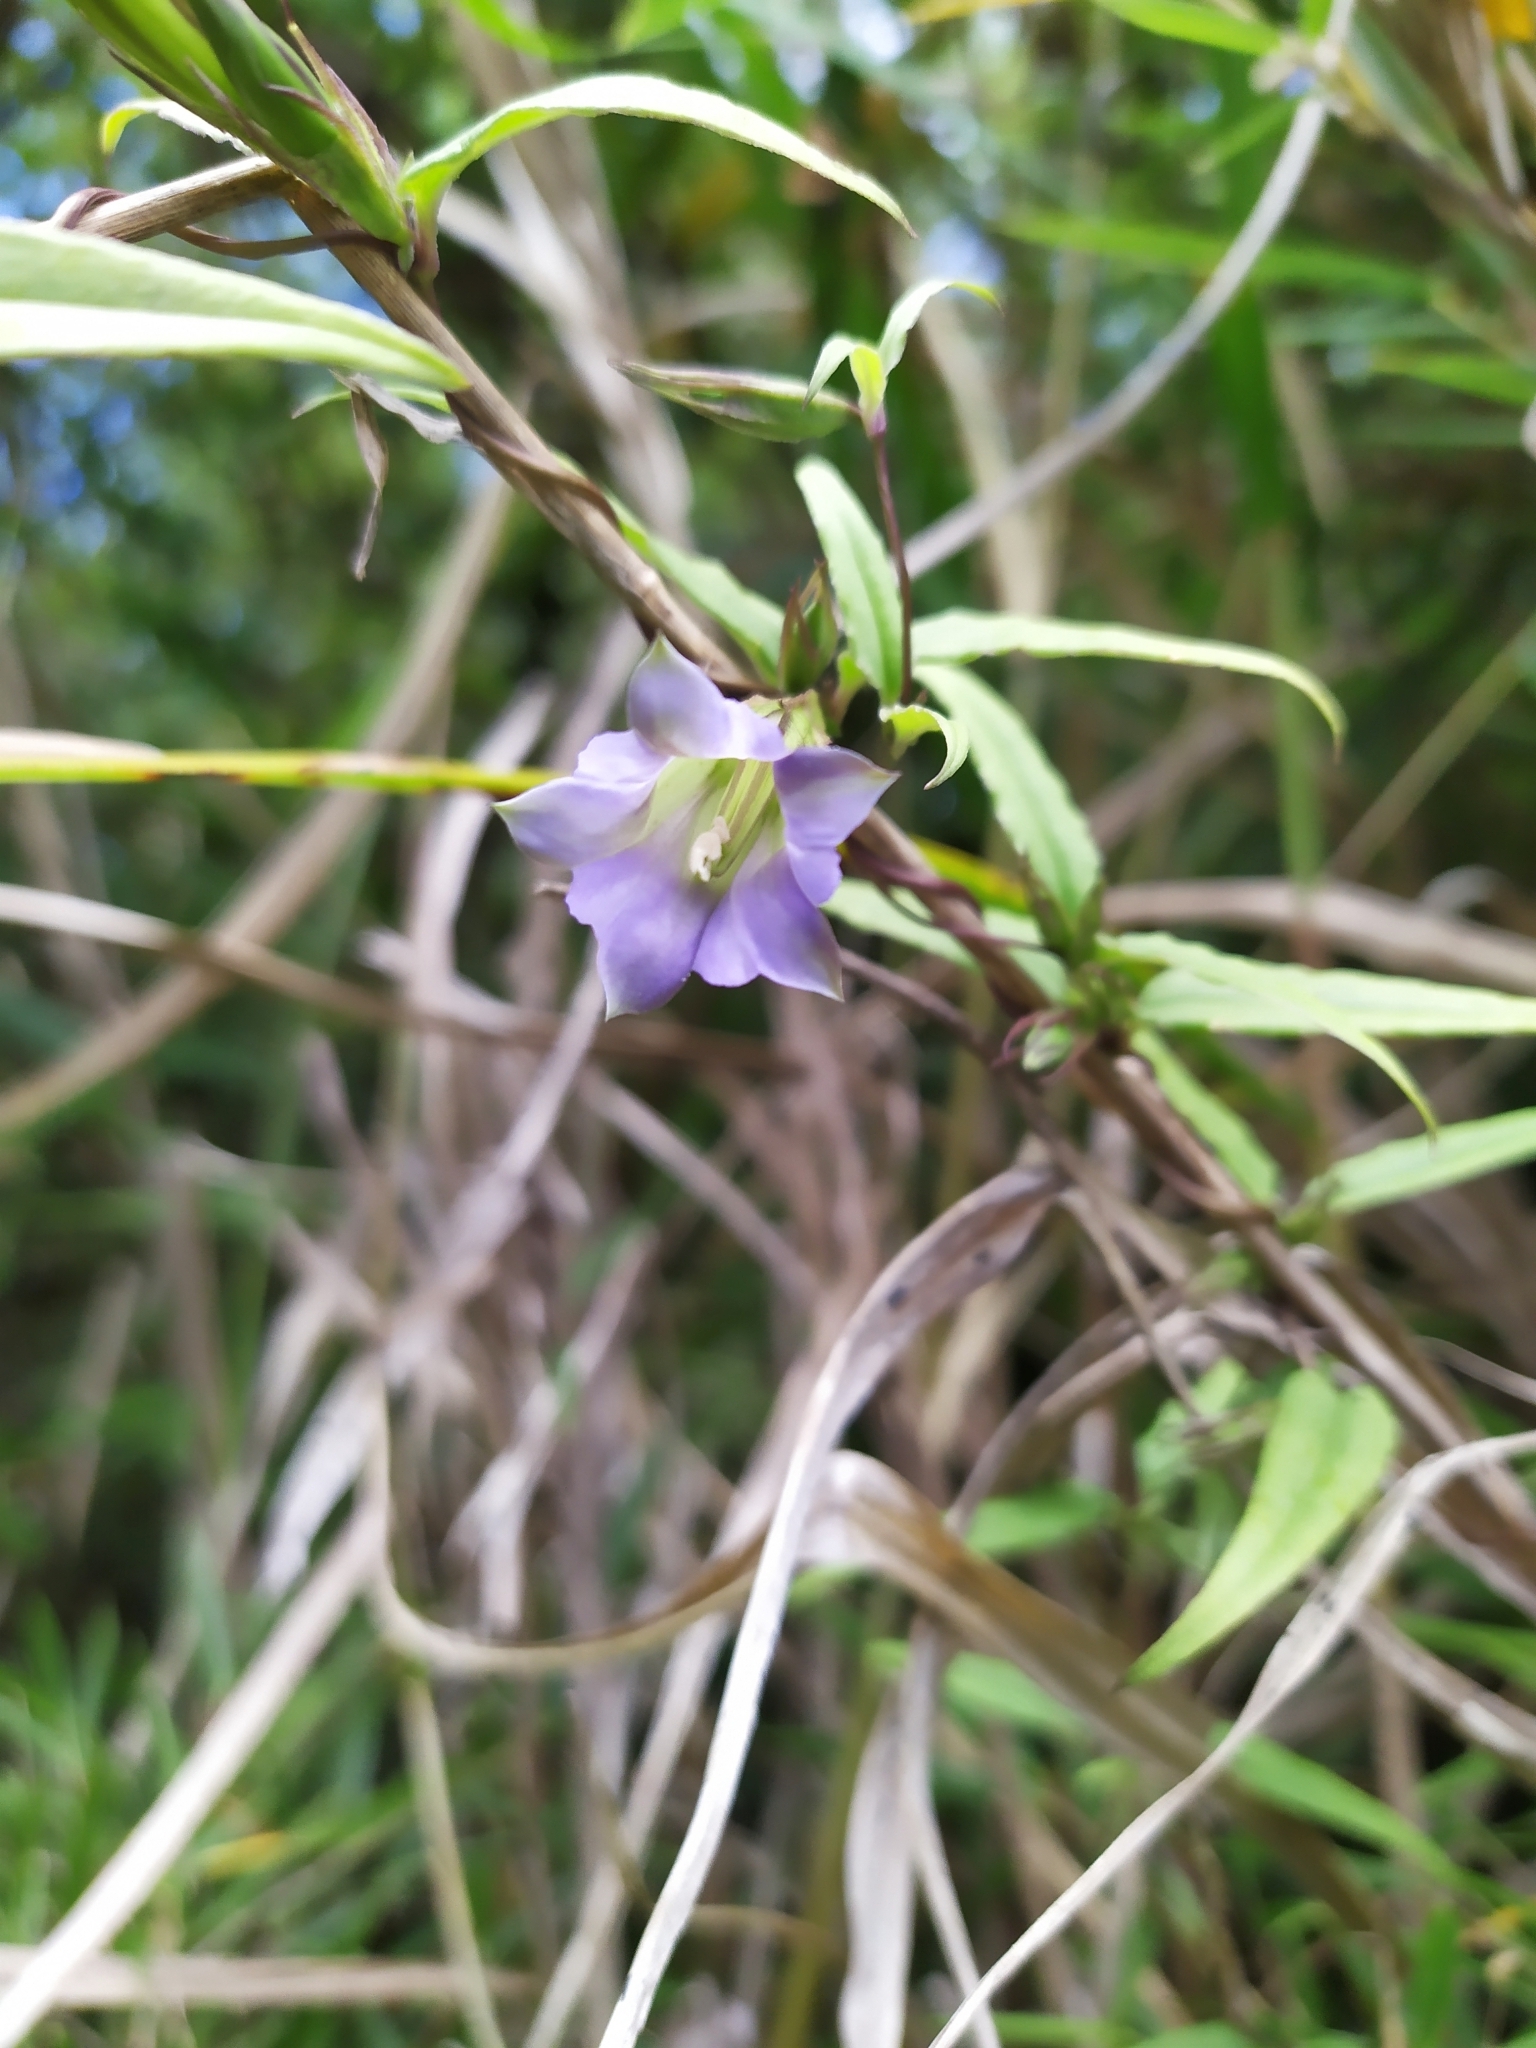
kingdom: Plantae
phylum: Tracheophyta
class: Magnoliopsida
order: Gentianales
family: Gentianaceae
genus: Tripterospermum
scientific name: Tripterospermum lanceolatum
